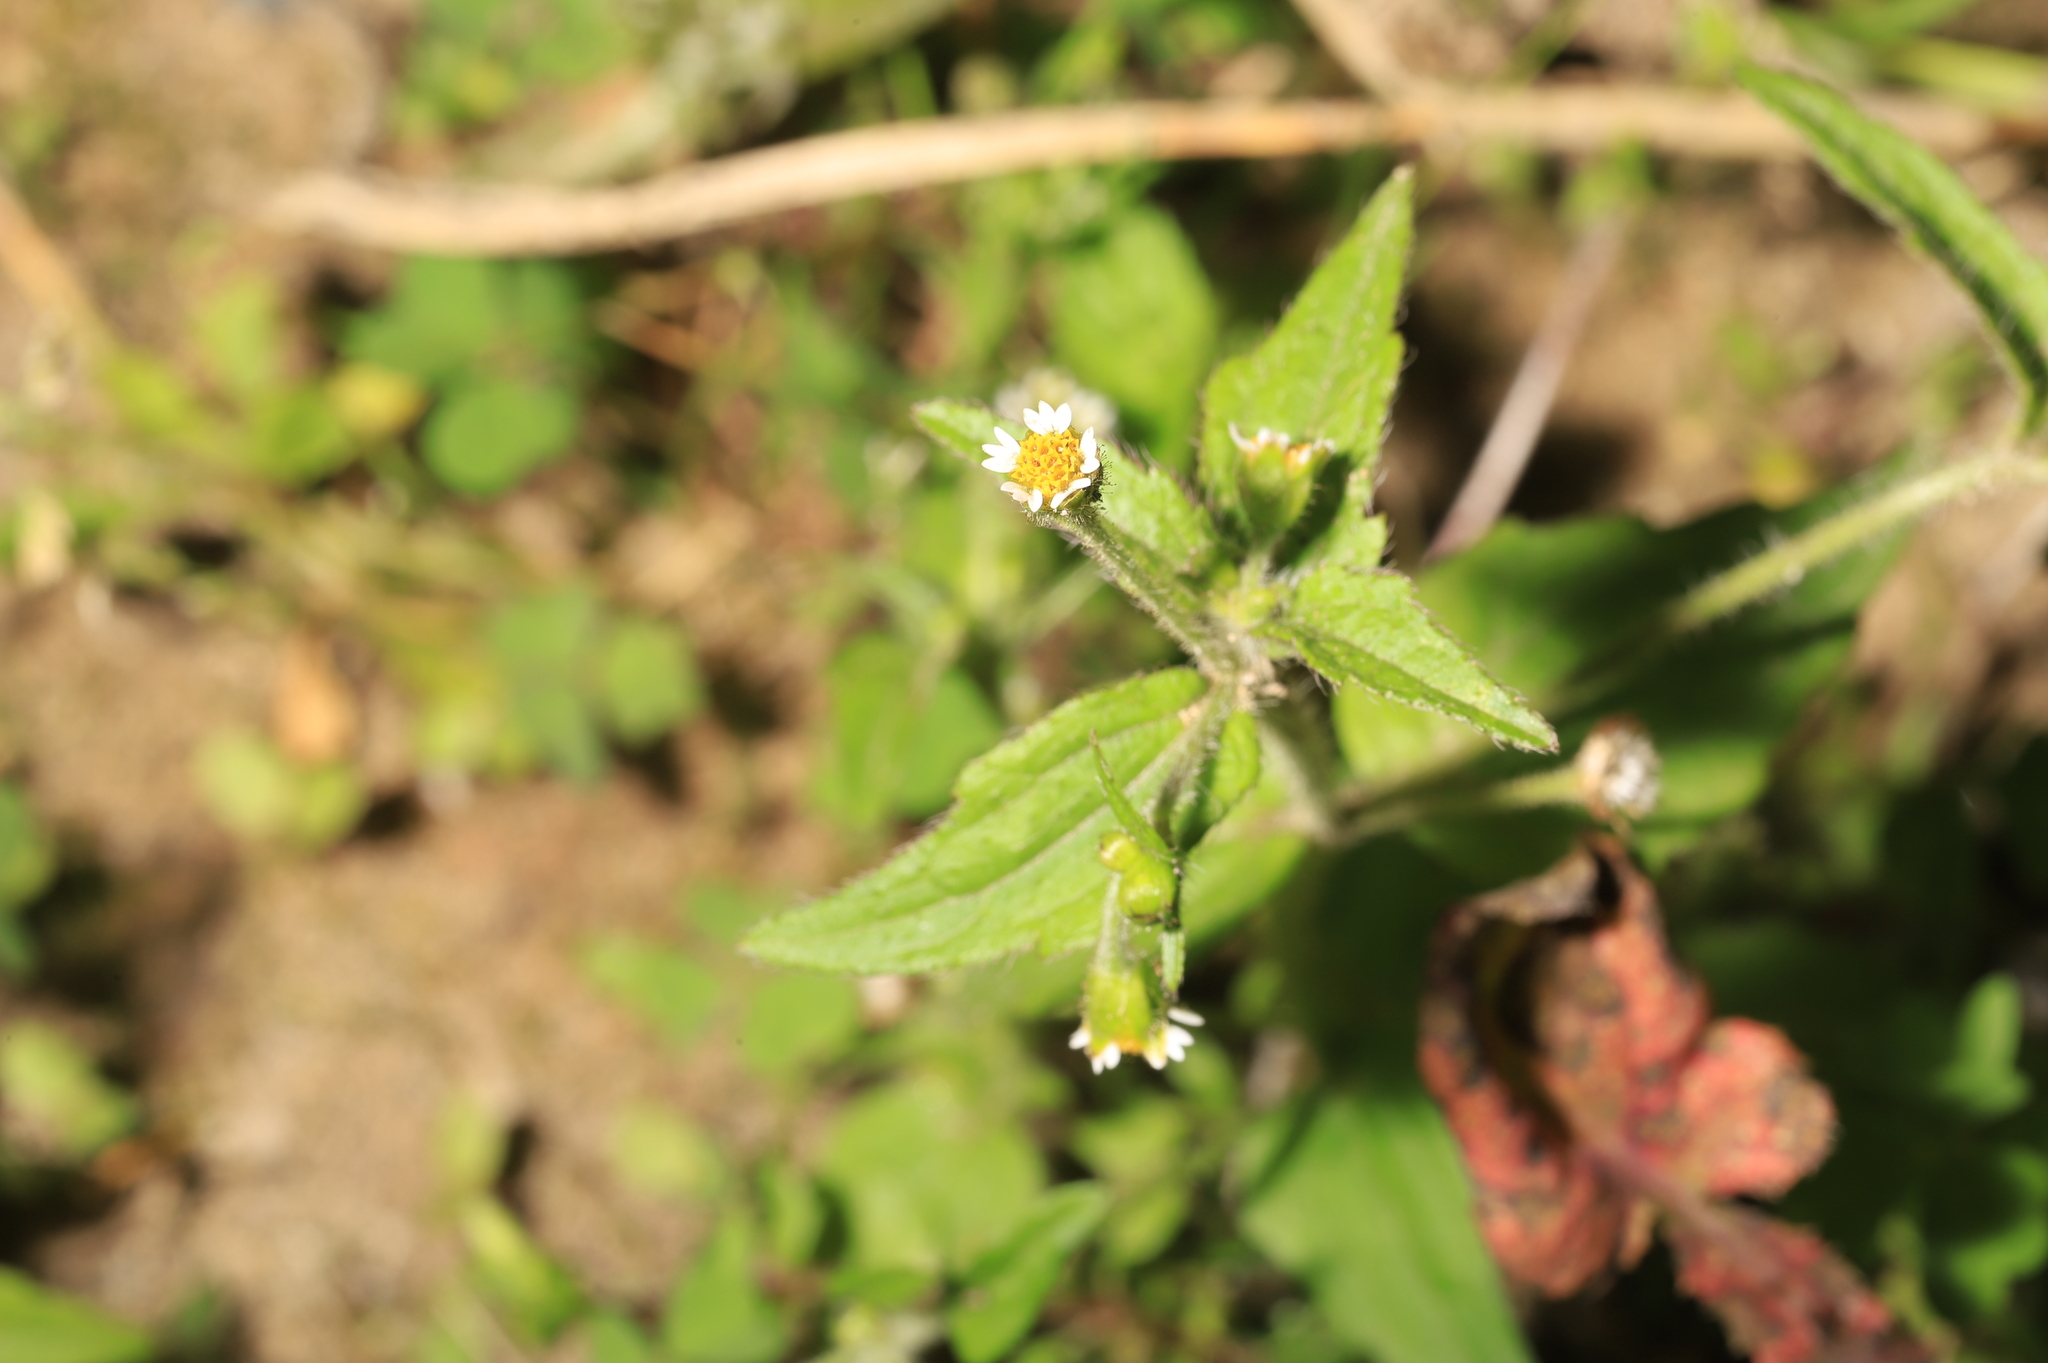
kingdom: Plantae
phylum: Tracheophyta
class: Magnoliopsida
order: Asterales
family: Asteraceae
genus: Galinsoga
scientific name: Galinsoga quadriradiata
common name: Shaggy soldier
